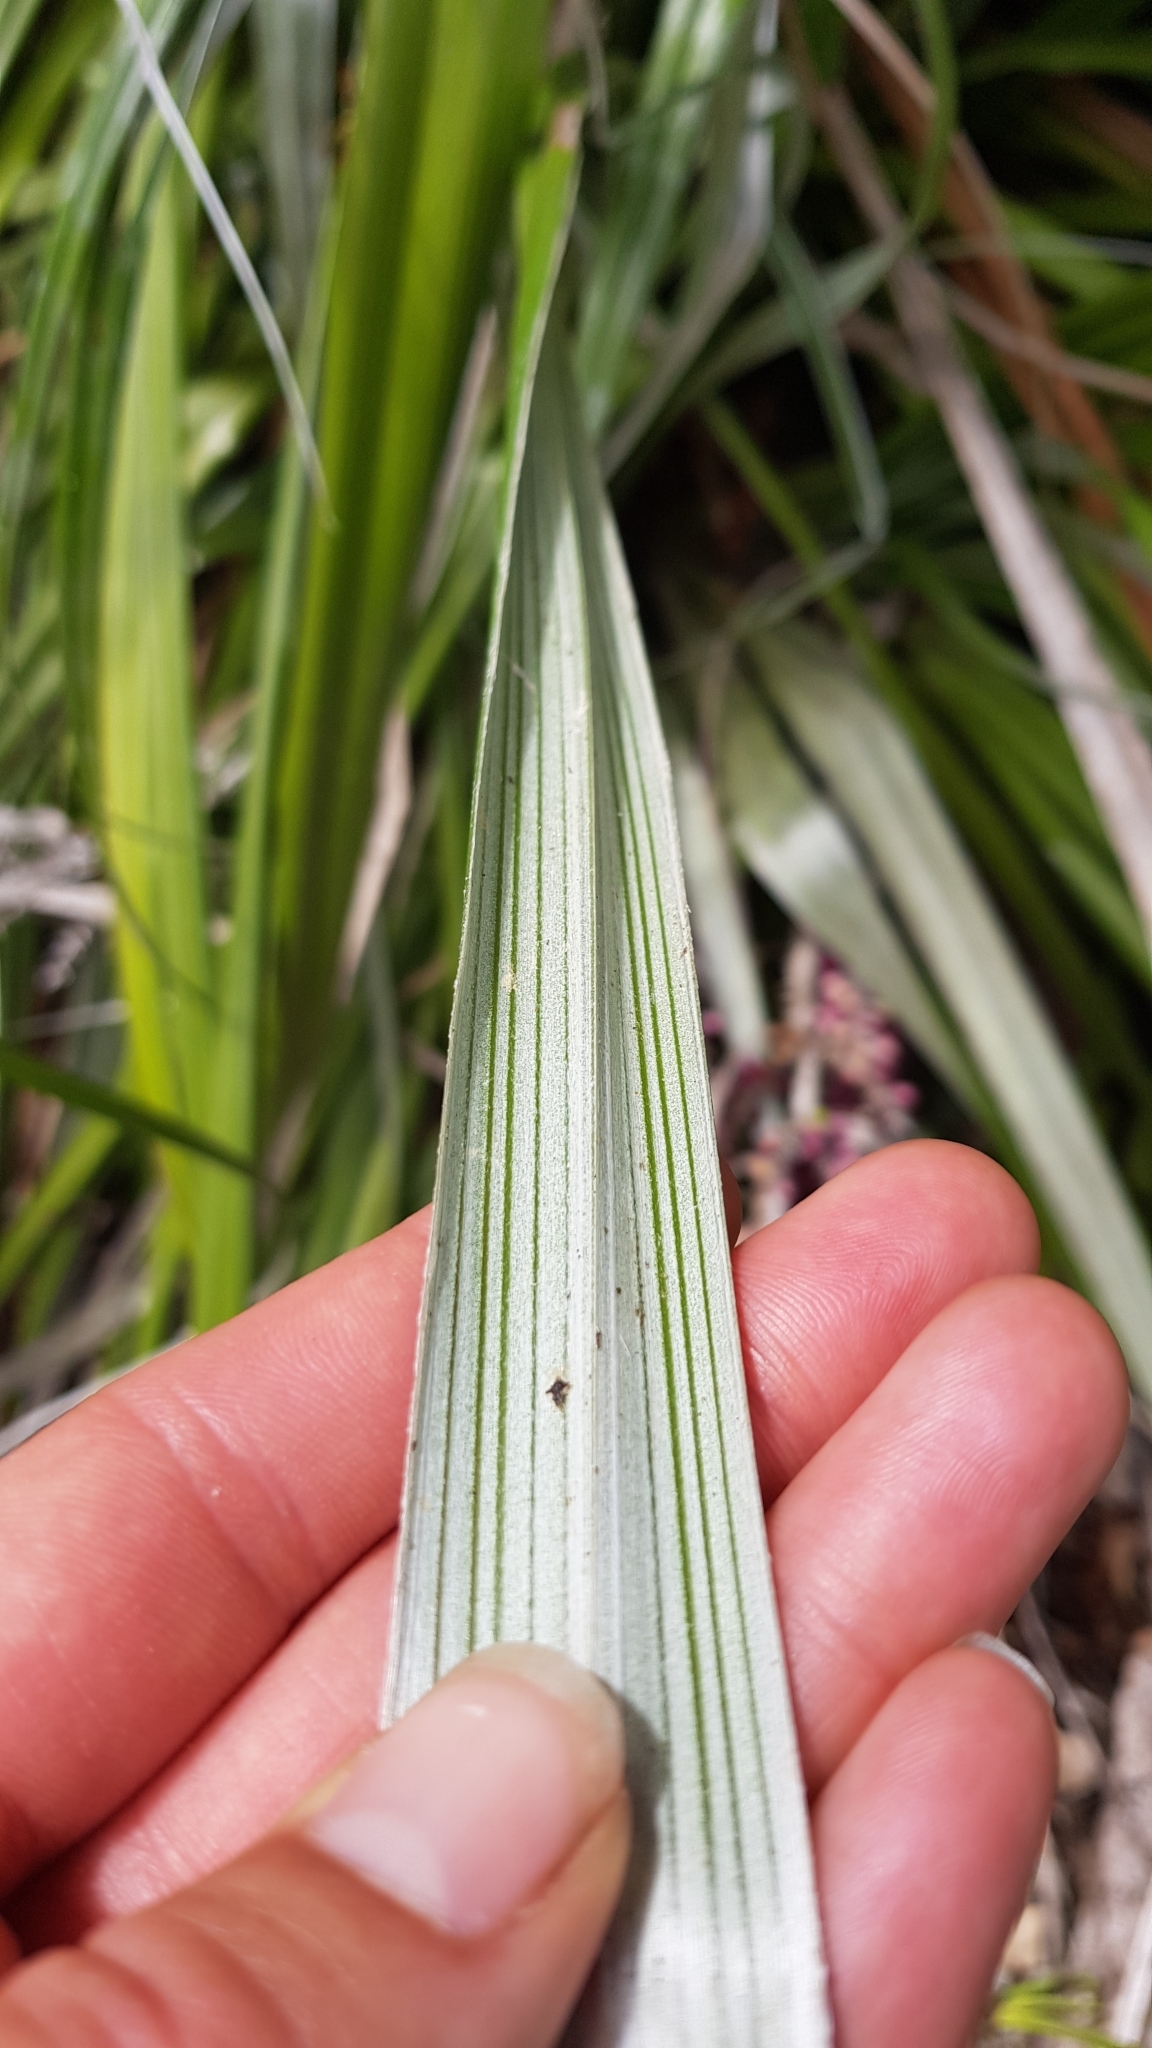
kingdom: Plantae
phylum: Tracheophyta
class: Liliopsida
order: Asparagales
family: Asteliaceae
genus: Astelia
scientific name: Astelia banksii
